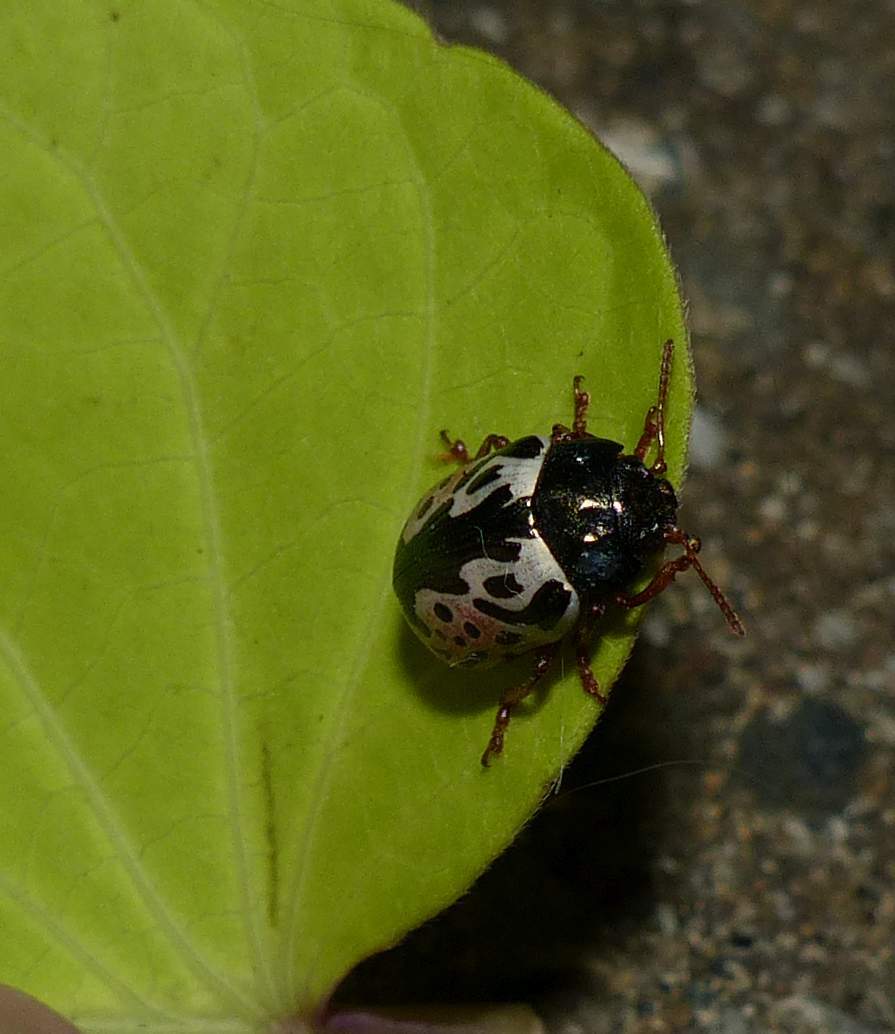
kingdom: Animalia
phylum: Arthropoda
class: Insecta
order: Coleoptera
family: Chrysomelidae
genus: Calligrapha
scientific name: Calligrapha knabi
